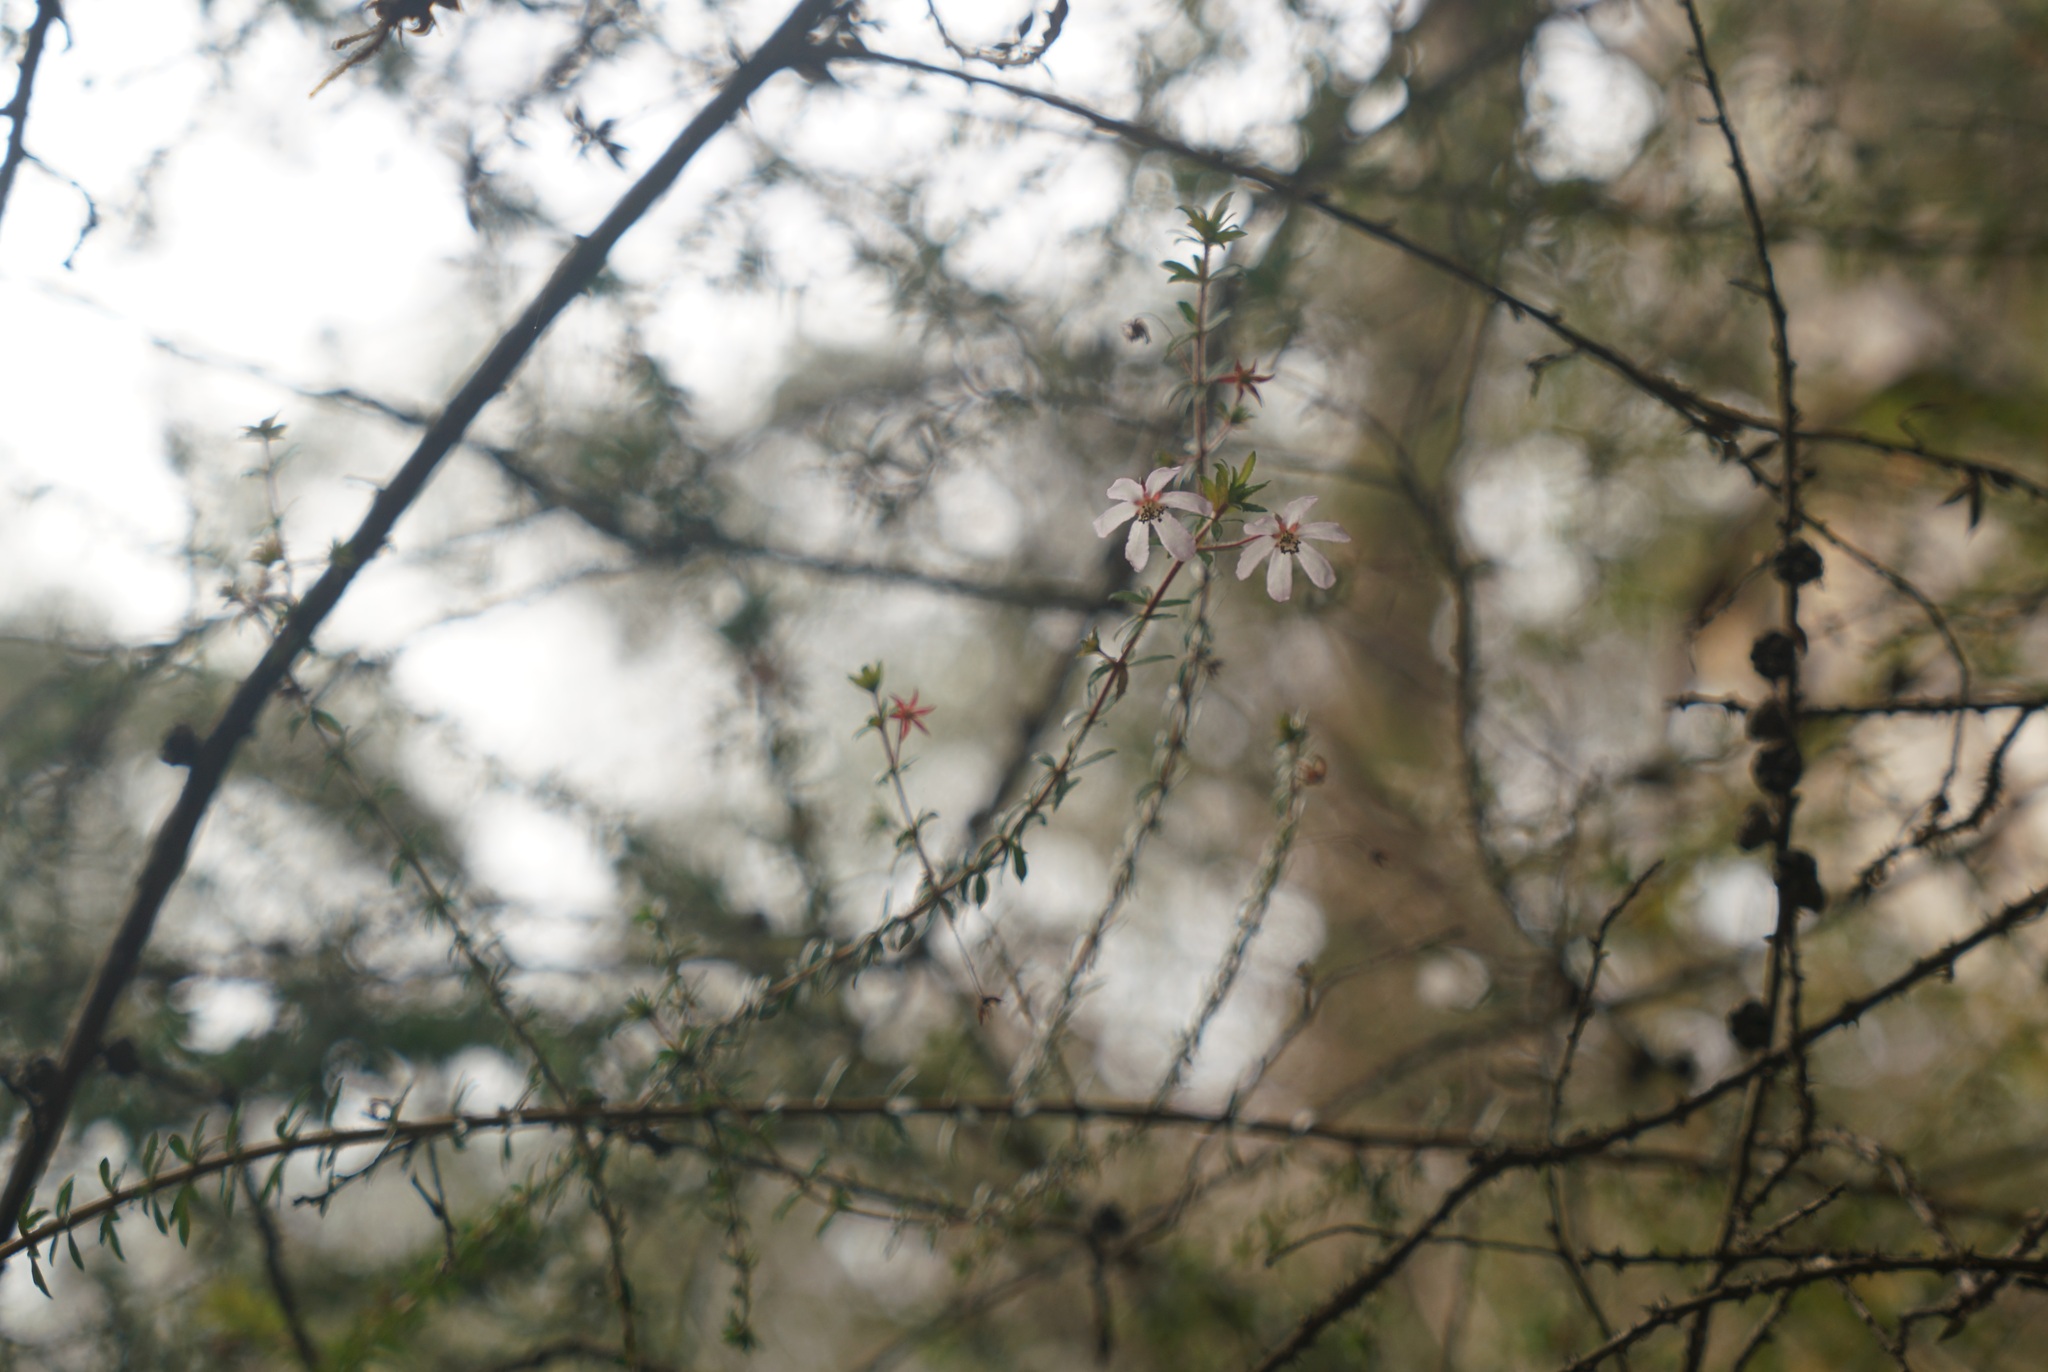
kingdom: Plantae
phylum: Tracheophyta
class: Magnoliopsida
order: Oxalidales
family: Cunoniaceae
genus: Bauera
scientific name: Bauera rubioides
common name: River-rose
